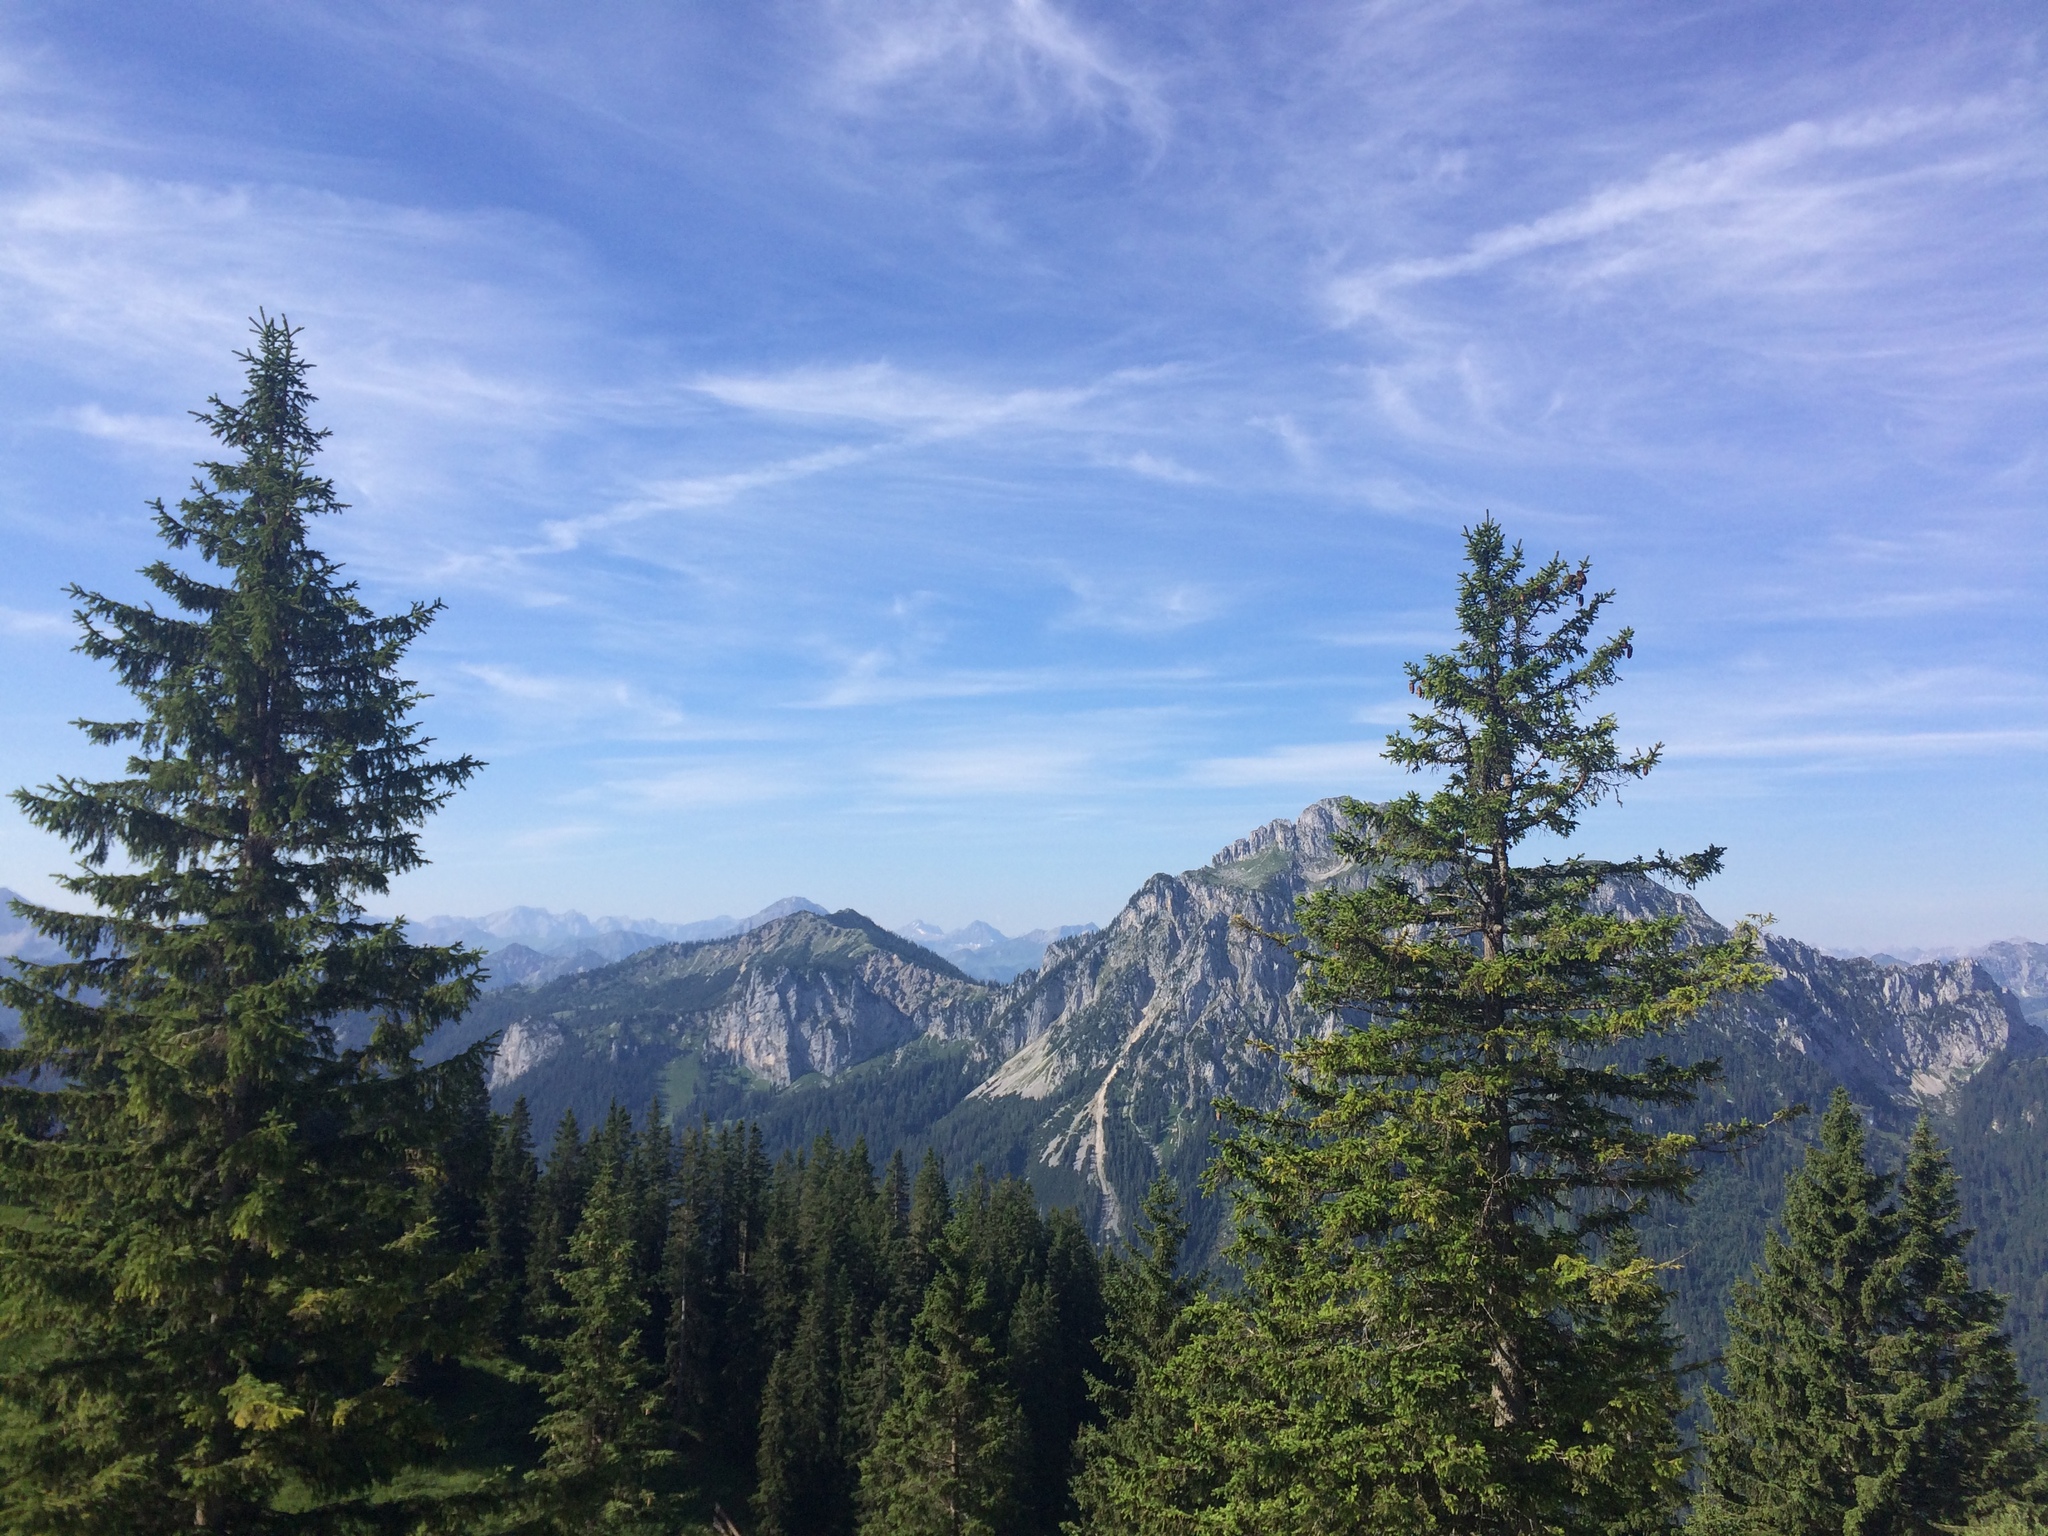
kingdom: Plantae
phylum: Tracheophyta
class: Pinopsida
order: Pinales
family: Pinaceae
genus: Picea
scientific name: Picea abies
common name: Norway spruce
